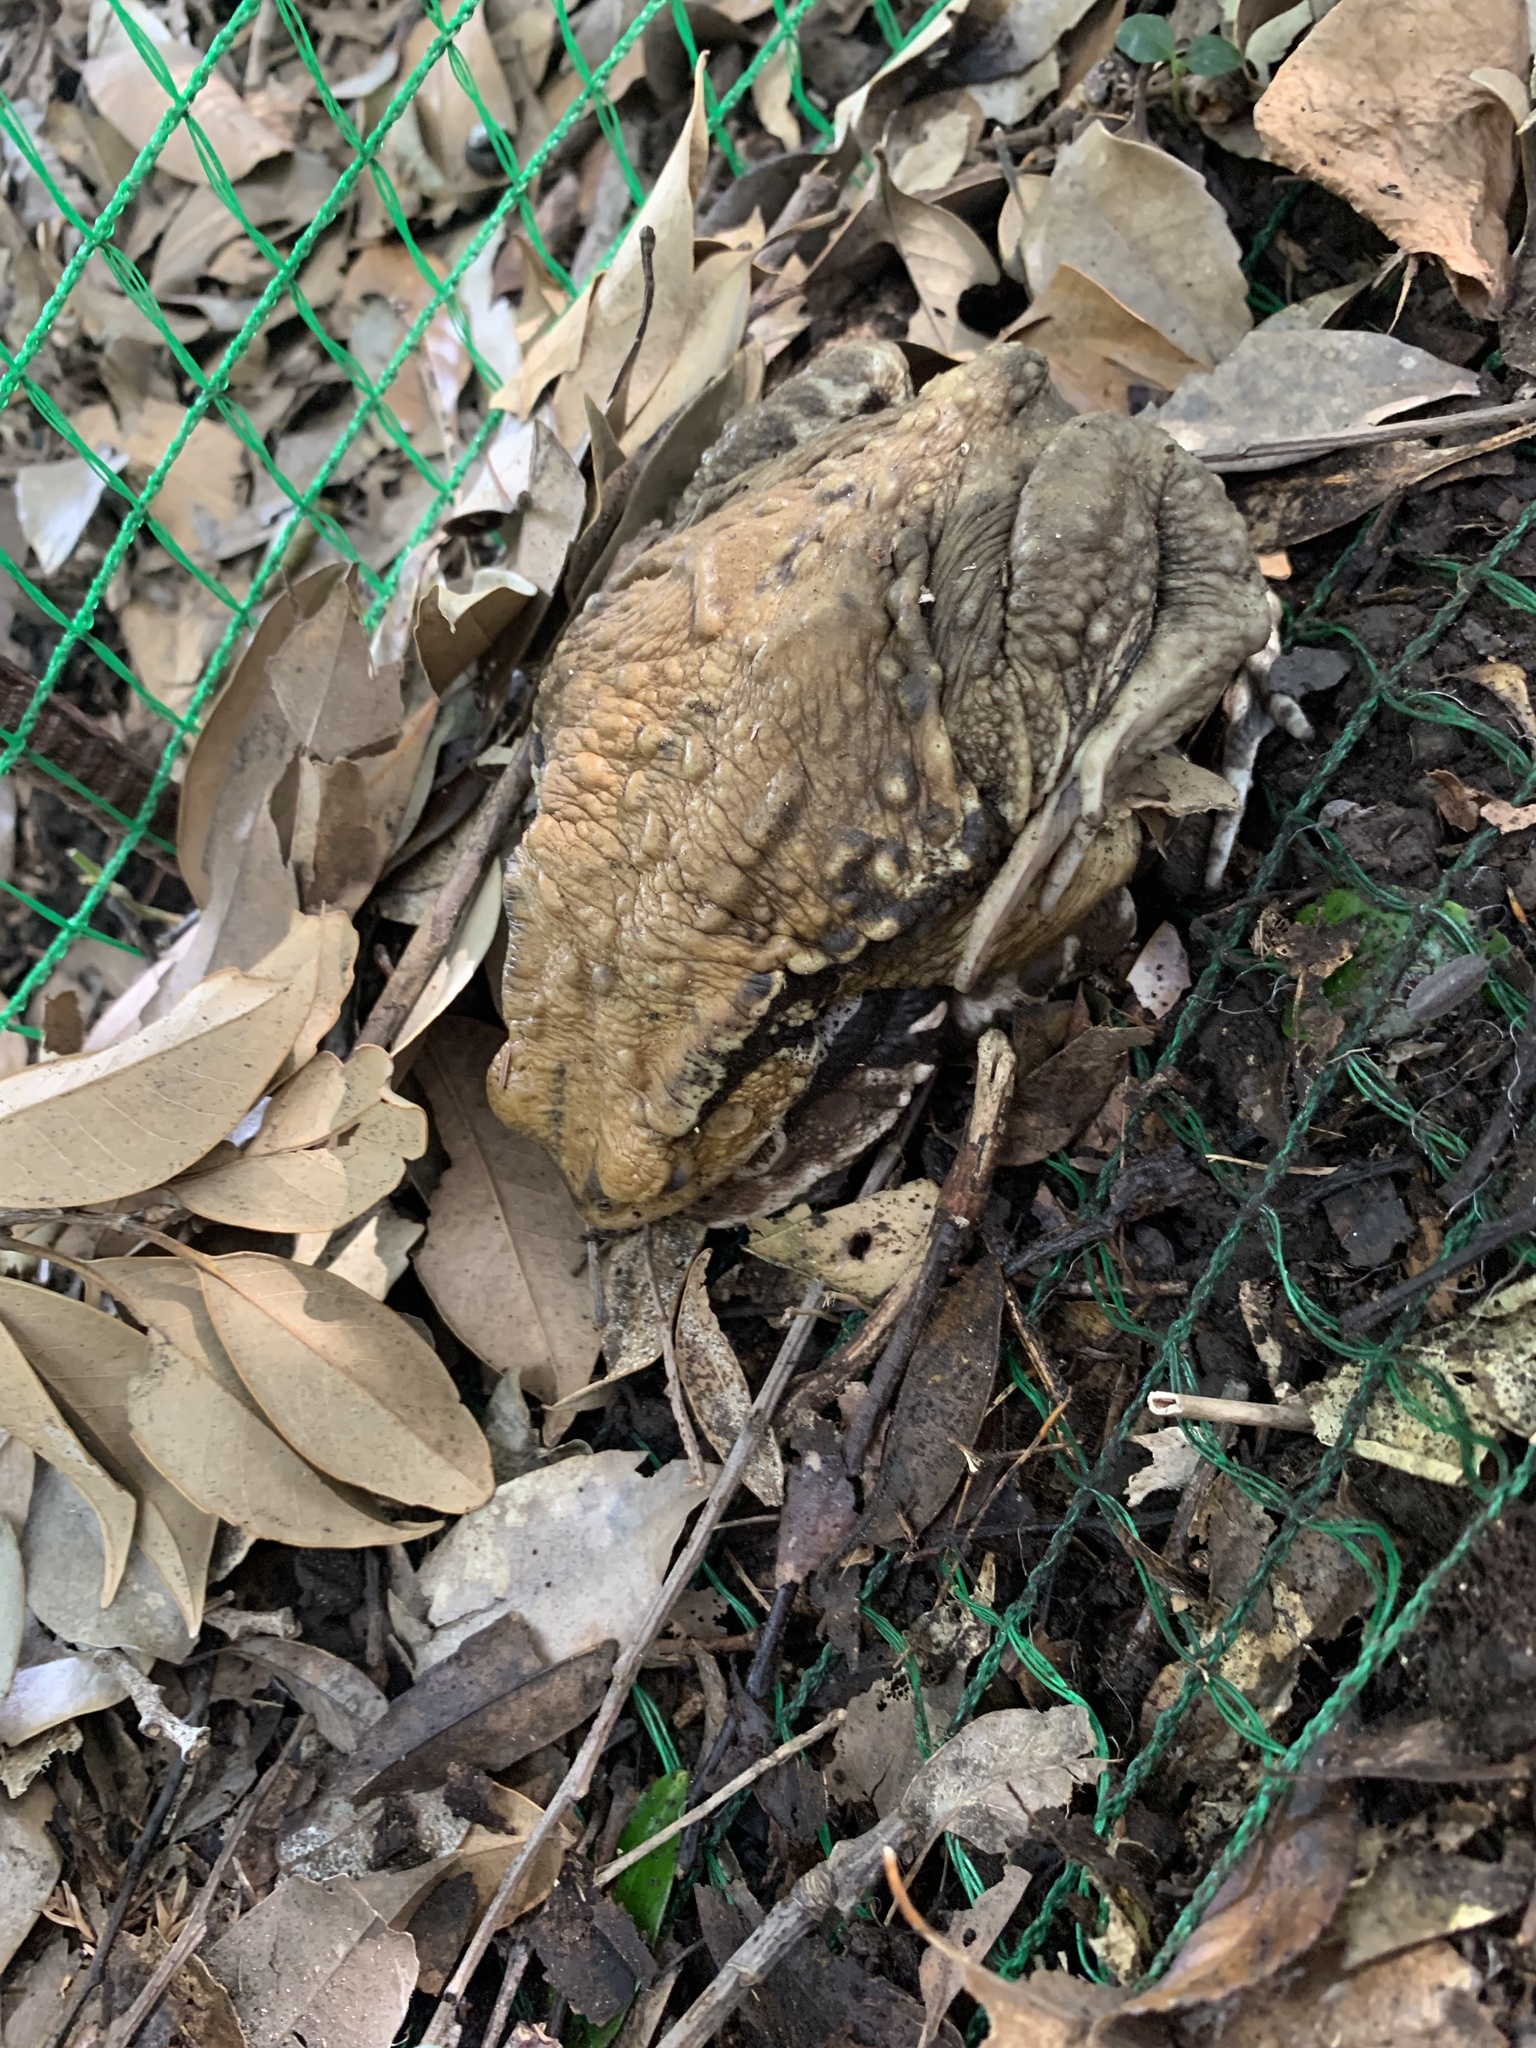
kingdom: Animalia
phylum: Chordata
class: Amphibia
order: Anura
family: Bufonidae
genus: Bufo
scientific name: Bufo japonicus
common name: Japanese common toad
